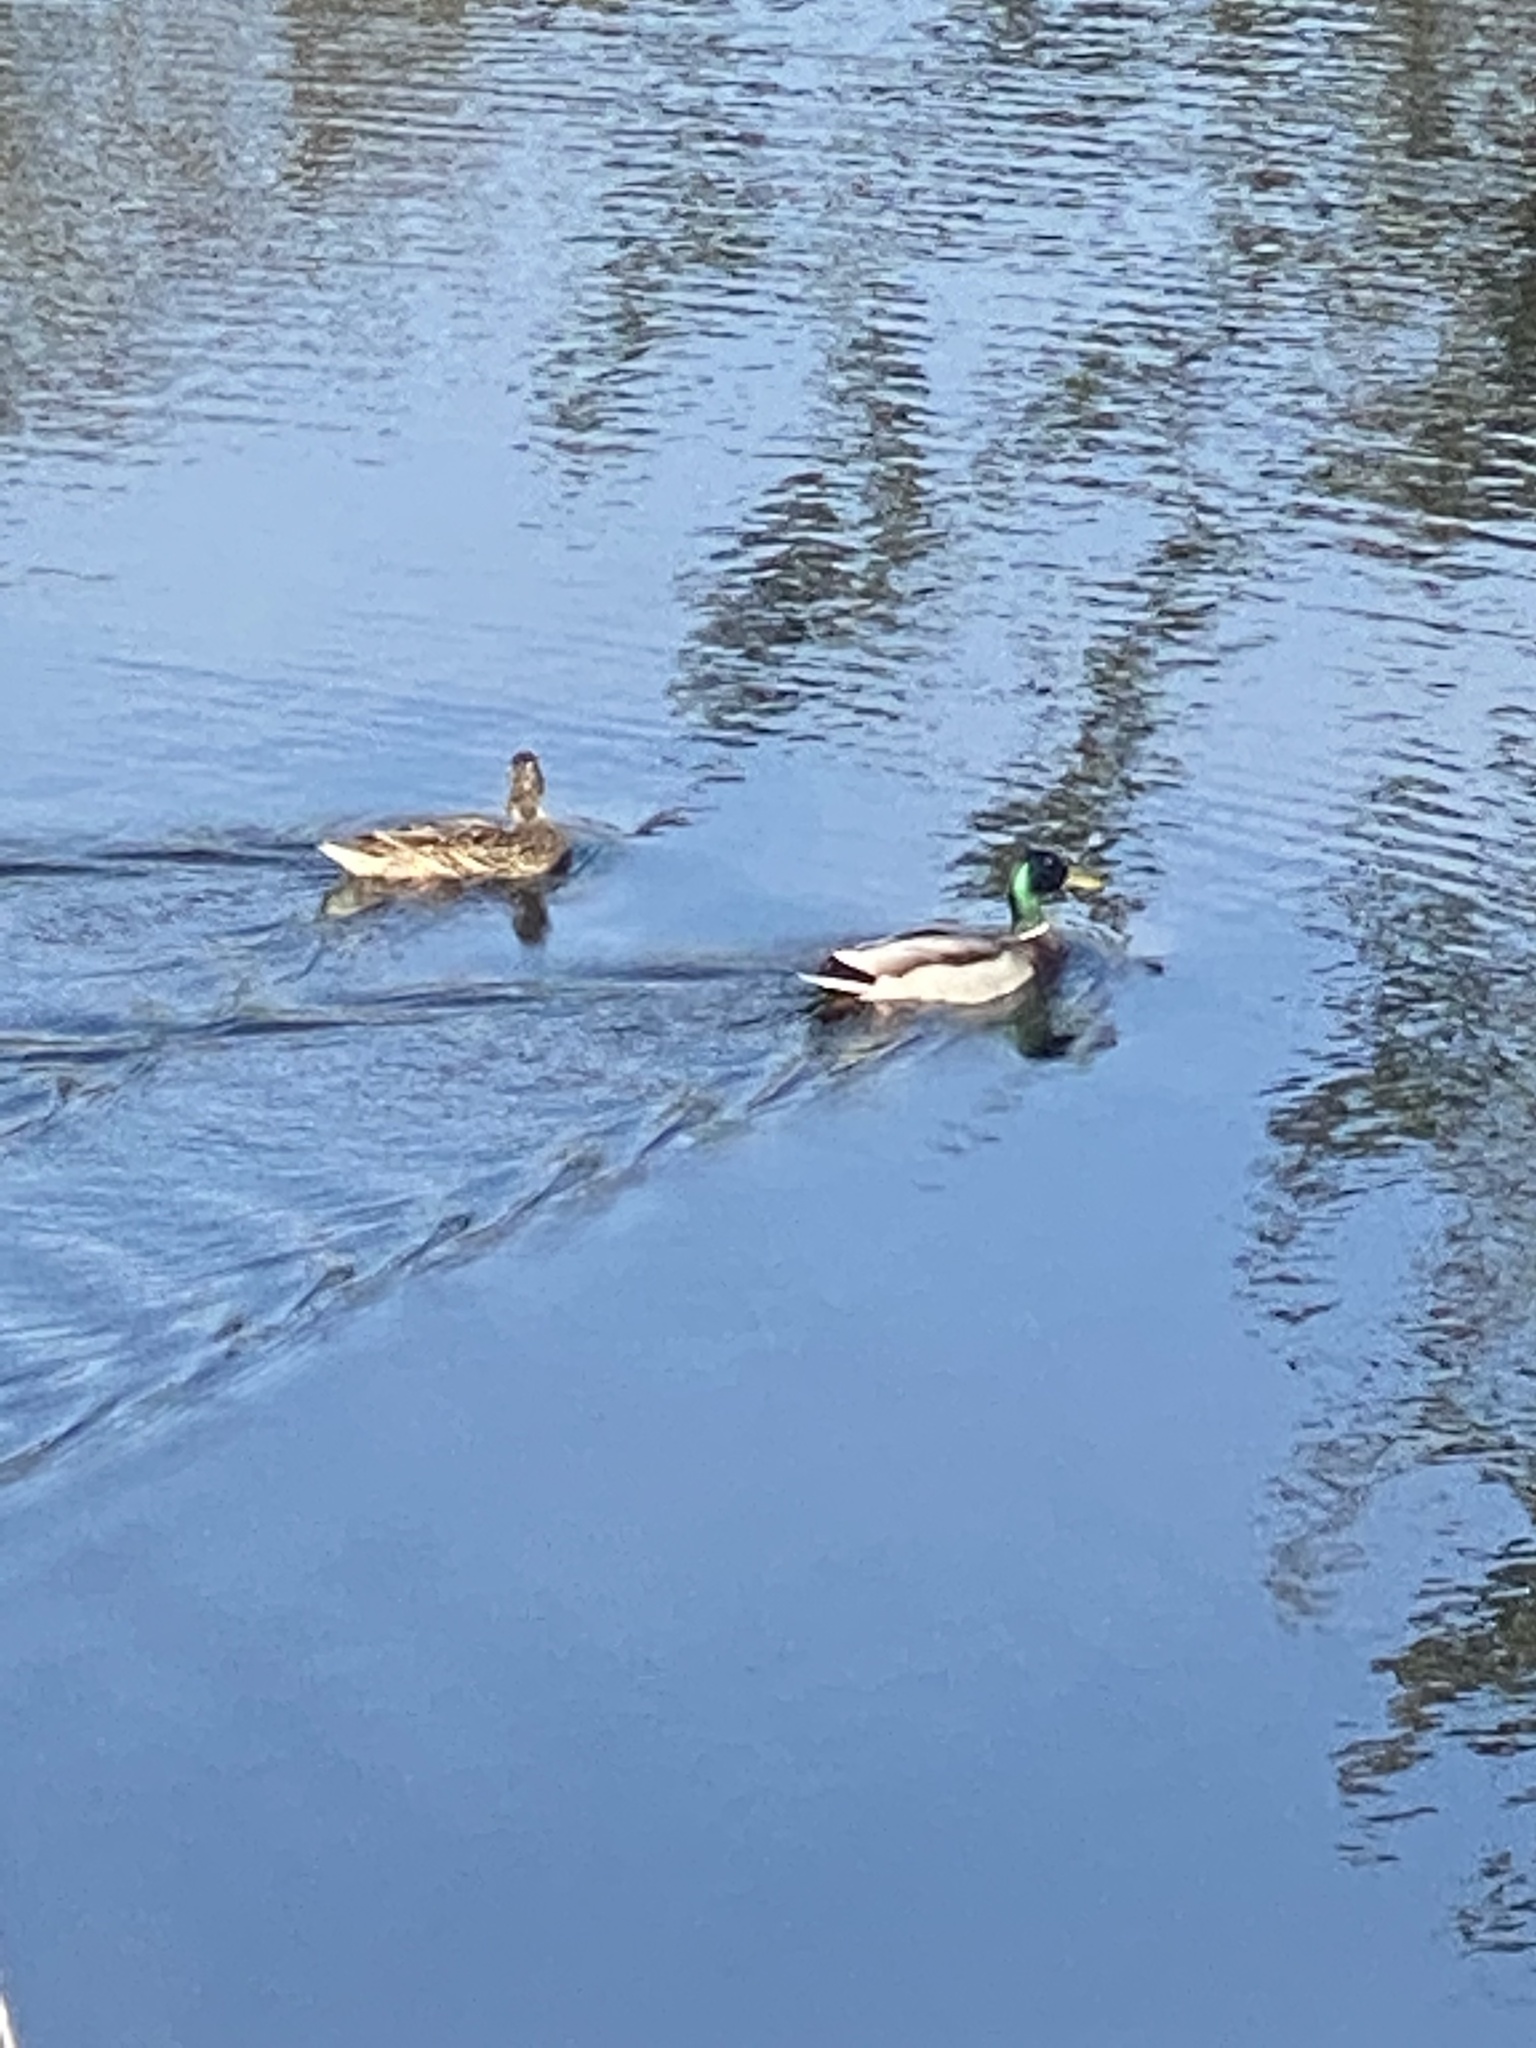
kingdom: Animalia
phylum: Chordata
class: Aves
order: Anseriformes
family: Anatidae
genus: Anas
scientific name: Anas platyrhynchos
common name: Mallard
